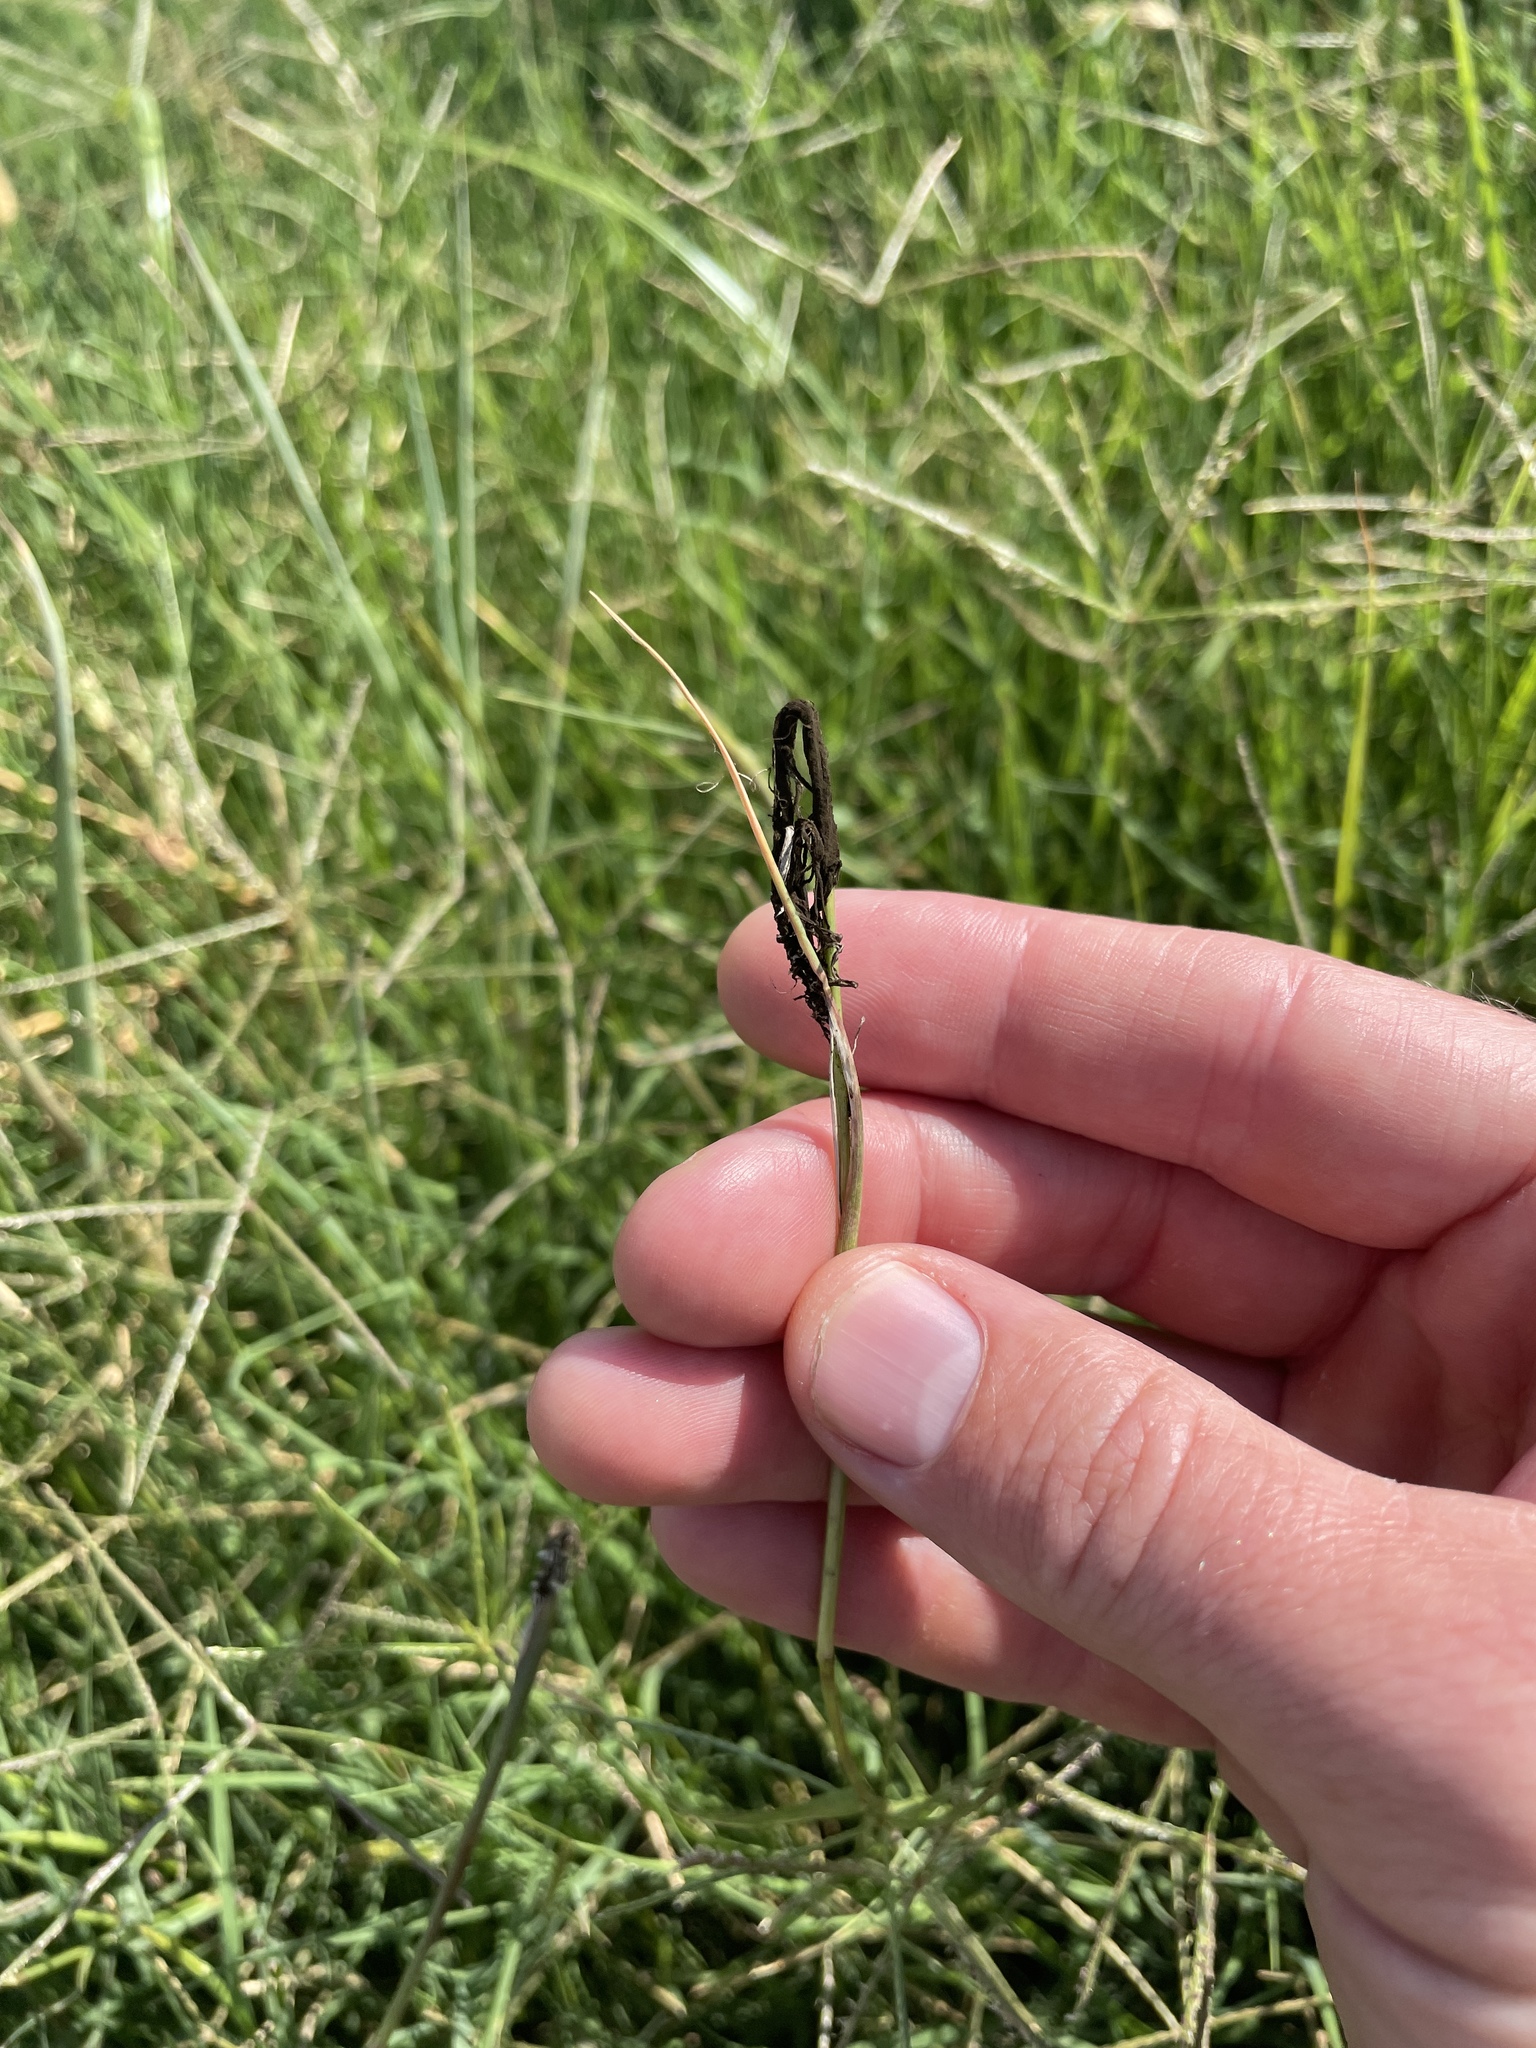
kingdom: Fungi
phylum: Basidiomycota
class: Ustilaginomycetes
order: Ustilaginales
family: Ustilaginaceae
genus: Ustilago
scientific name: Ustilago cynodontis
